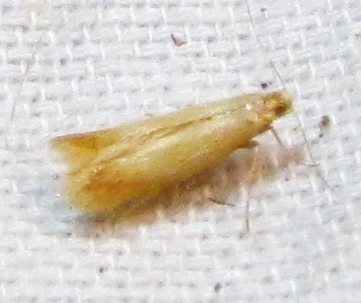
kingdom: Animalia
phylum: Arthropoda
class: Insecta
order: Lepidoptera
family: Tischeriidae
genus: Coptotriche
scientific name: Coptotriche citrinipennella
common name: The golden sweeper
